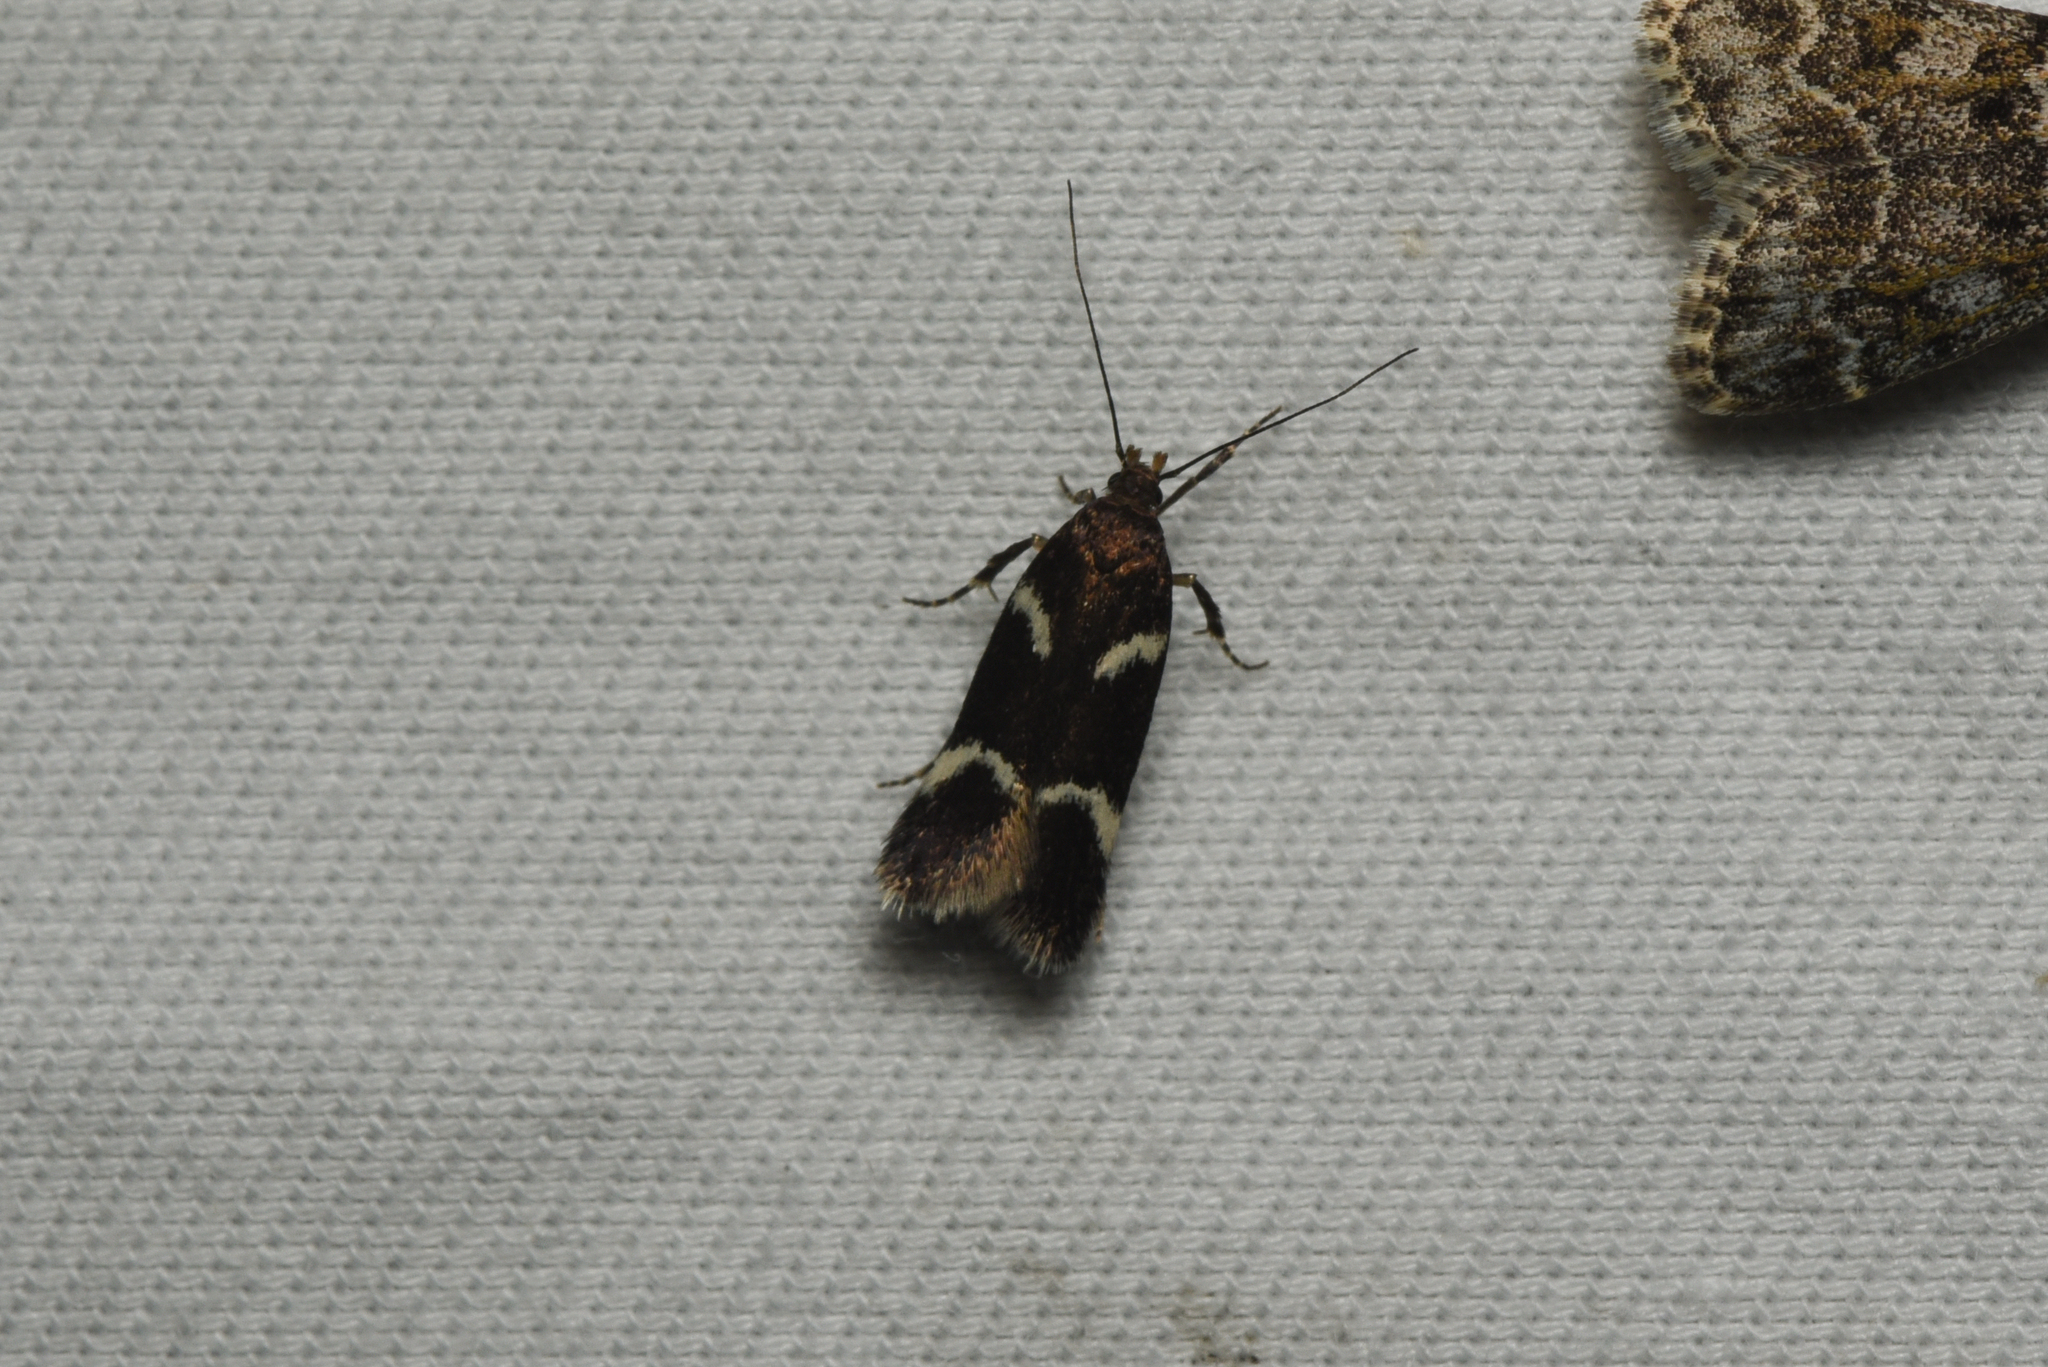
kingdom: Animalia
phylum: Arthropoda
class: Insecta
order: Lepidoptera
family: Gelechiidae
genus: Chionodes
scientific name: Chionodes lugubrella
